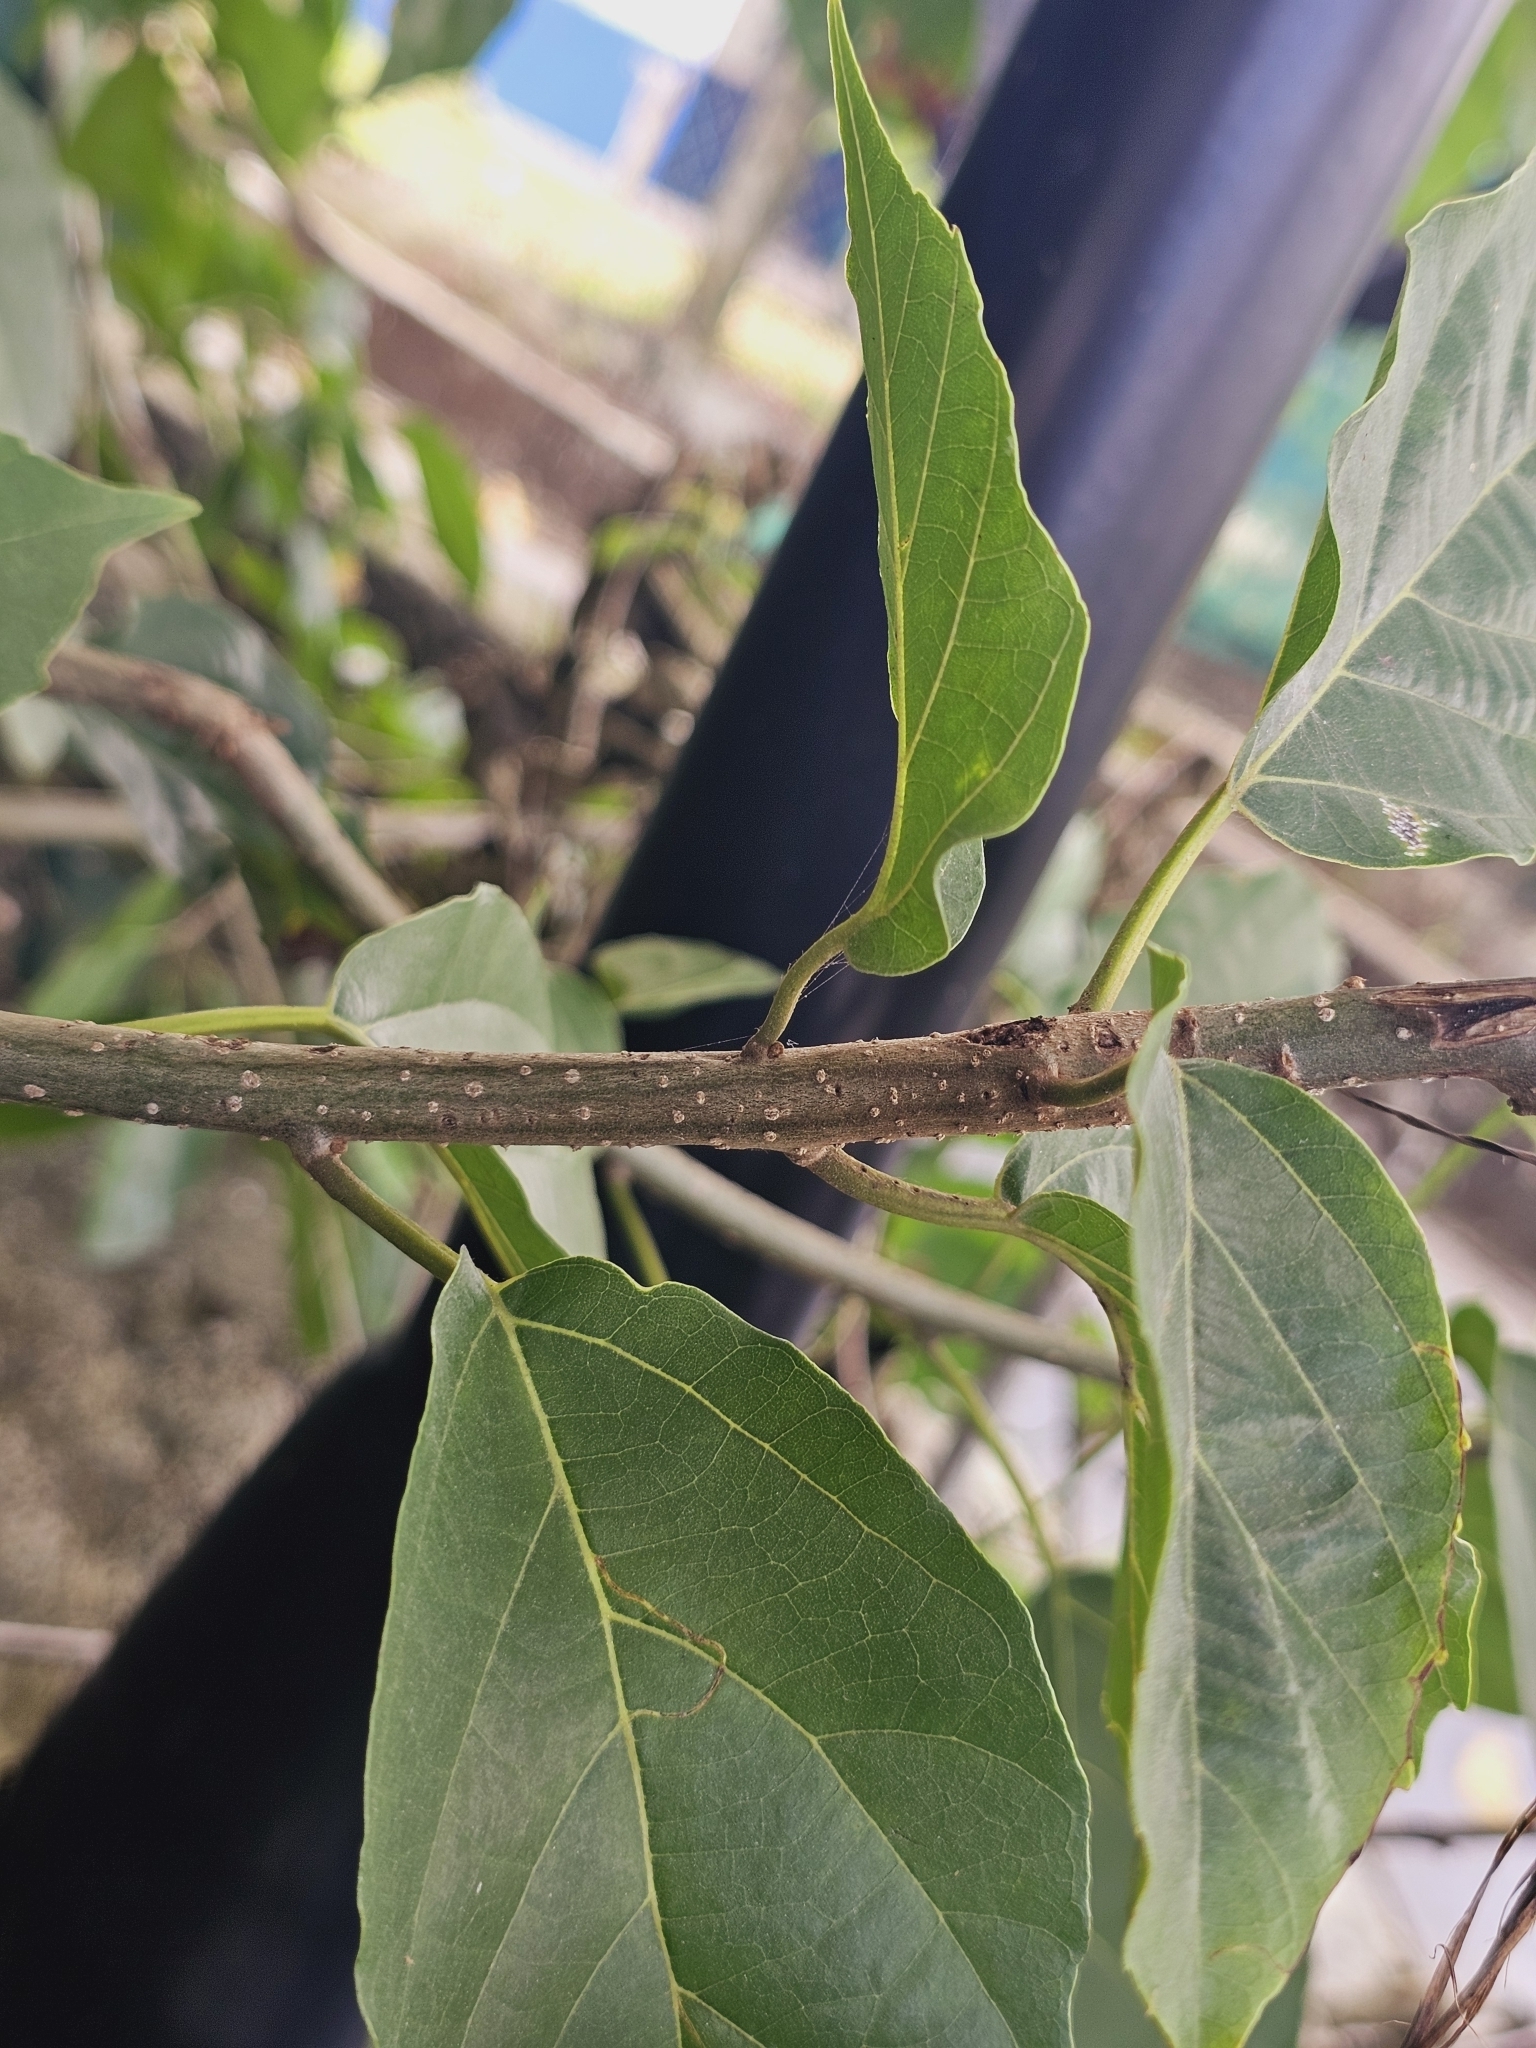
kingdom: Plantae
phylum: Tracheophyta
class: Magnoliopsida
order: Boraginales
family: Cordiaceae
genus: Cordia
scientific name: Cordia dichotoma
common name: Fragrant manjack
